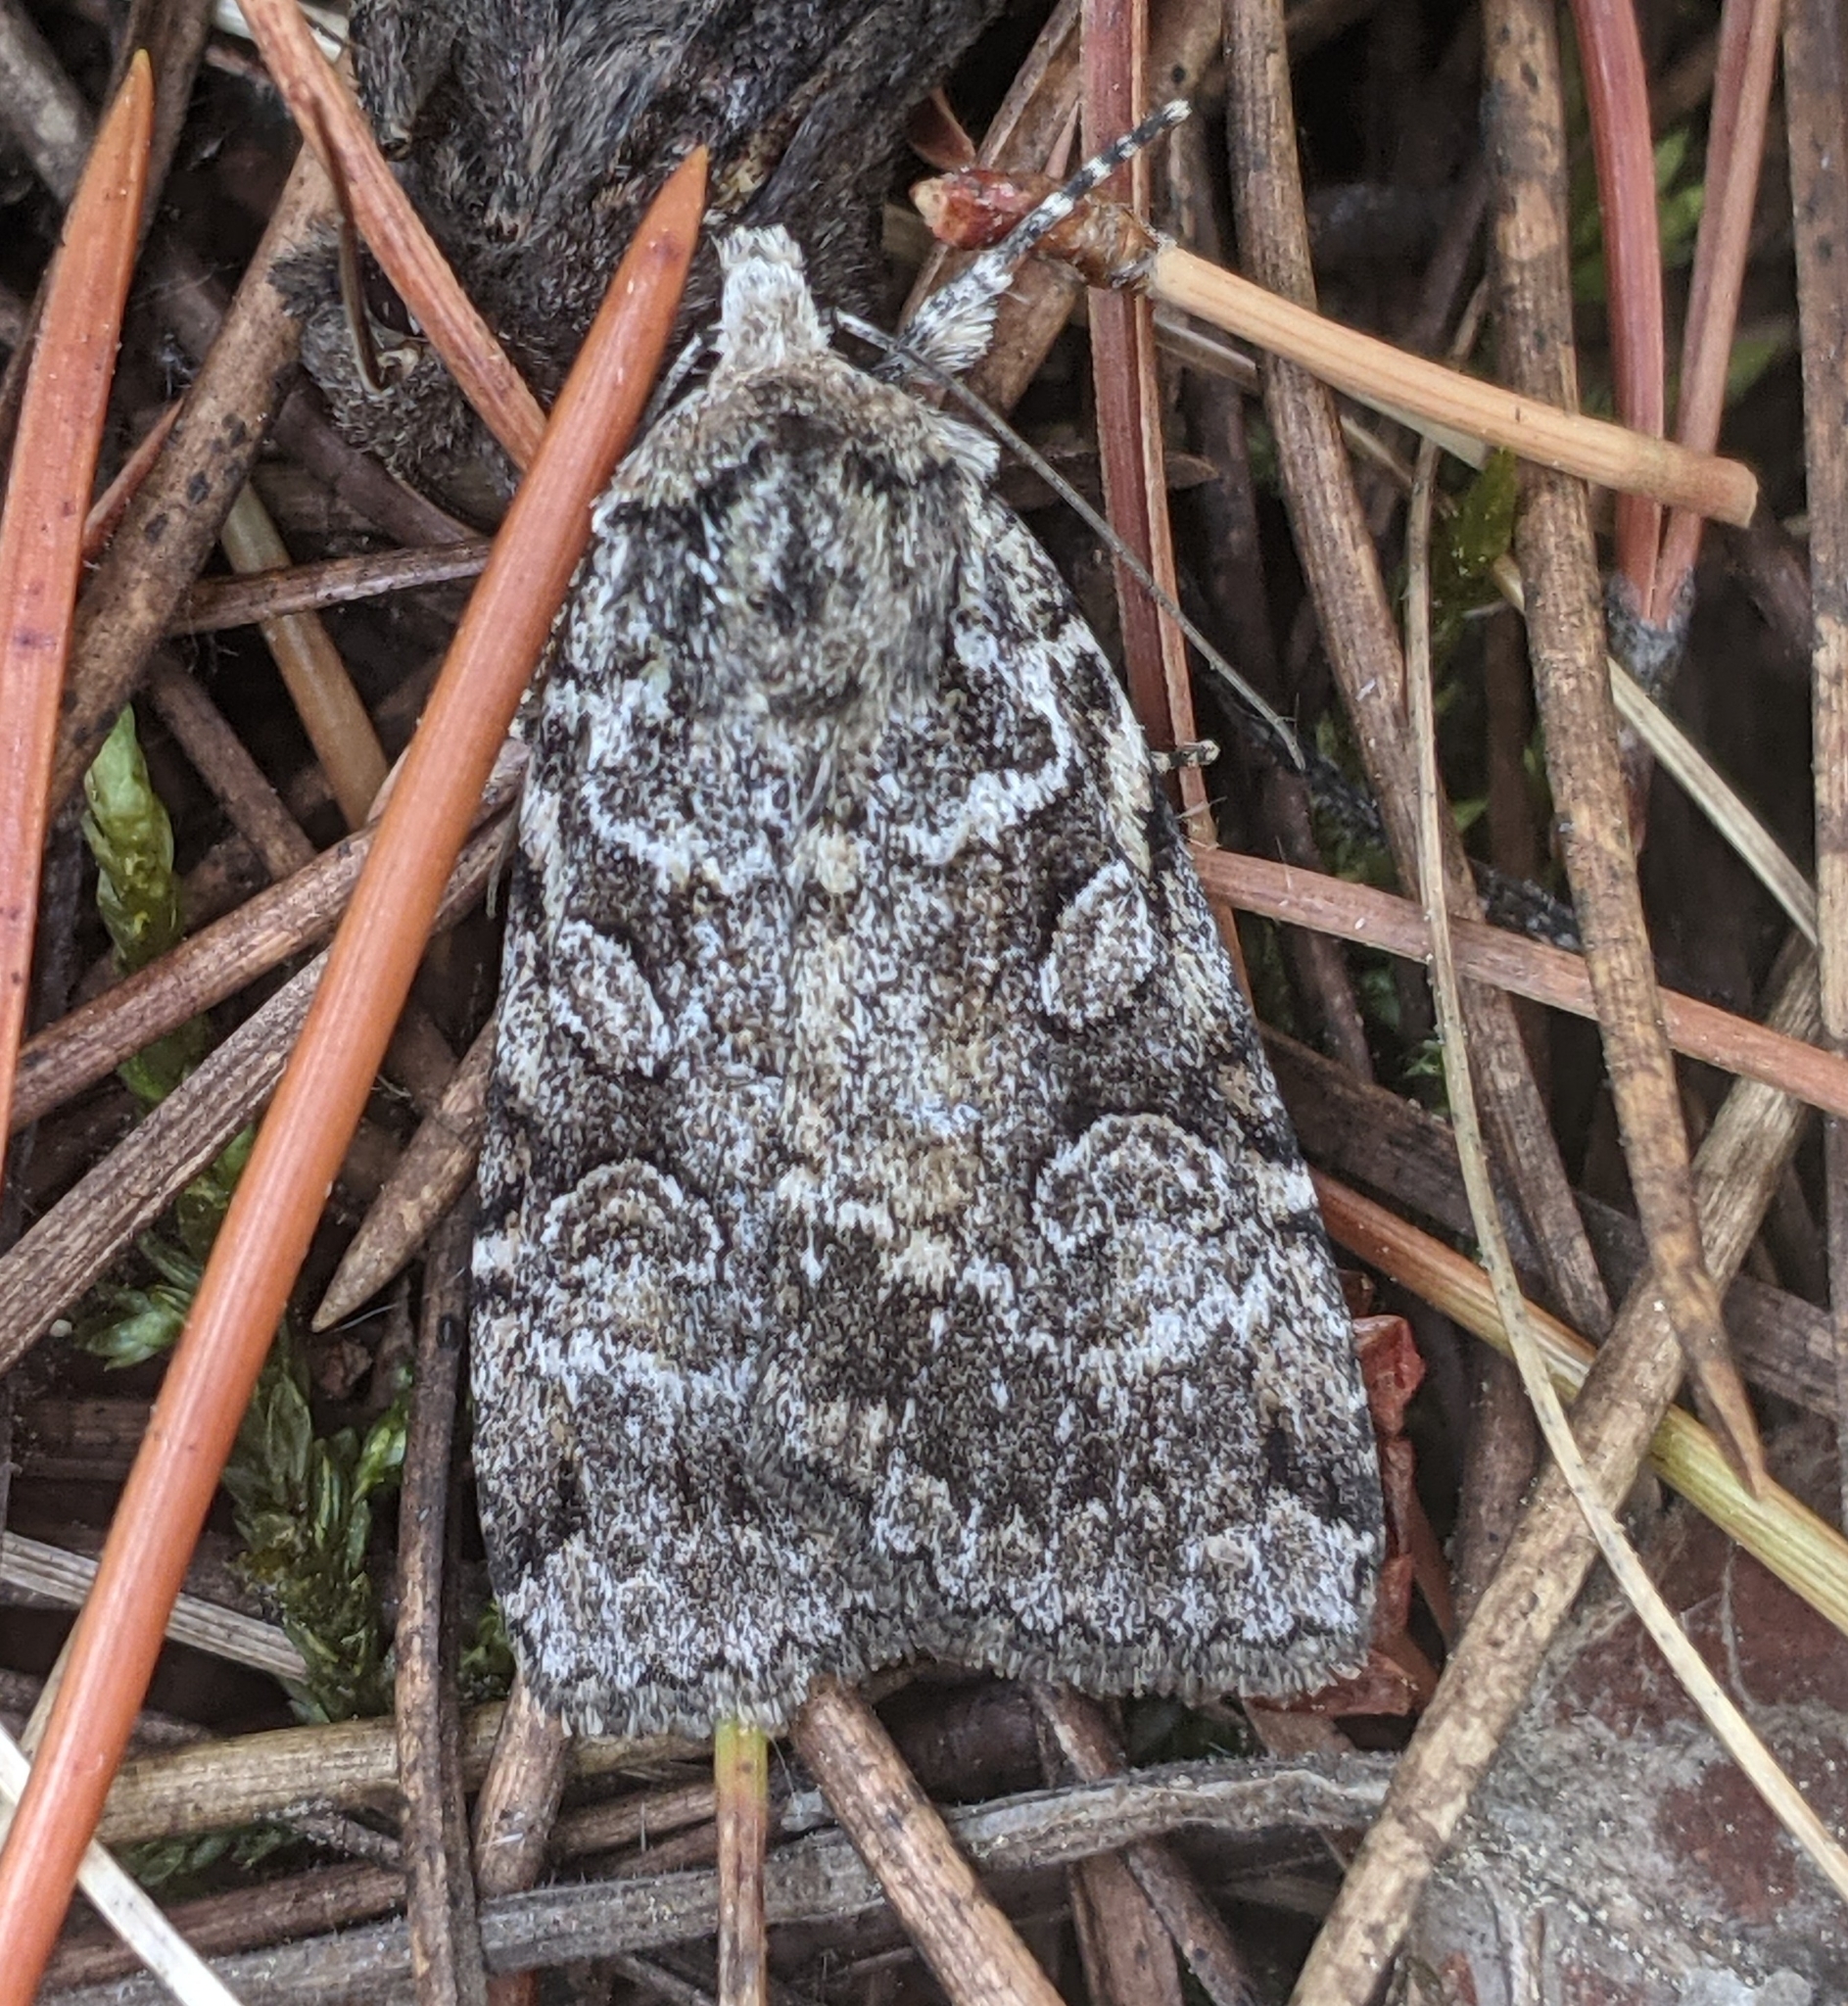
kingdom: Animalia
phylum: Arthropoda
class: Insecta
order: Lepidoptera
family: Noctuidae
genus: Anaplectoides
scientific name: Anaplectoides pressus
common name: Dappled dart
